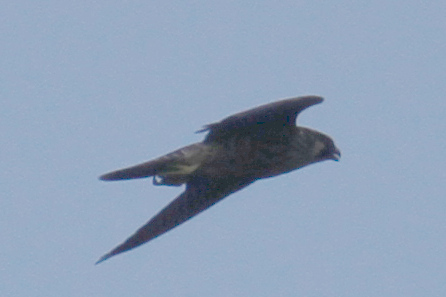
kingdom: Animalia
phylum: Chordata
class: Aves
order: Falconiformes
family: Falconidae
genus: Falco
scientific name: Falco peregrinus
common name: Peregrine falcon
